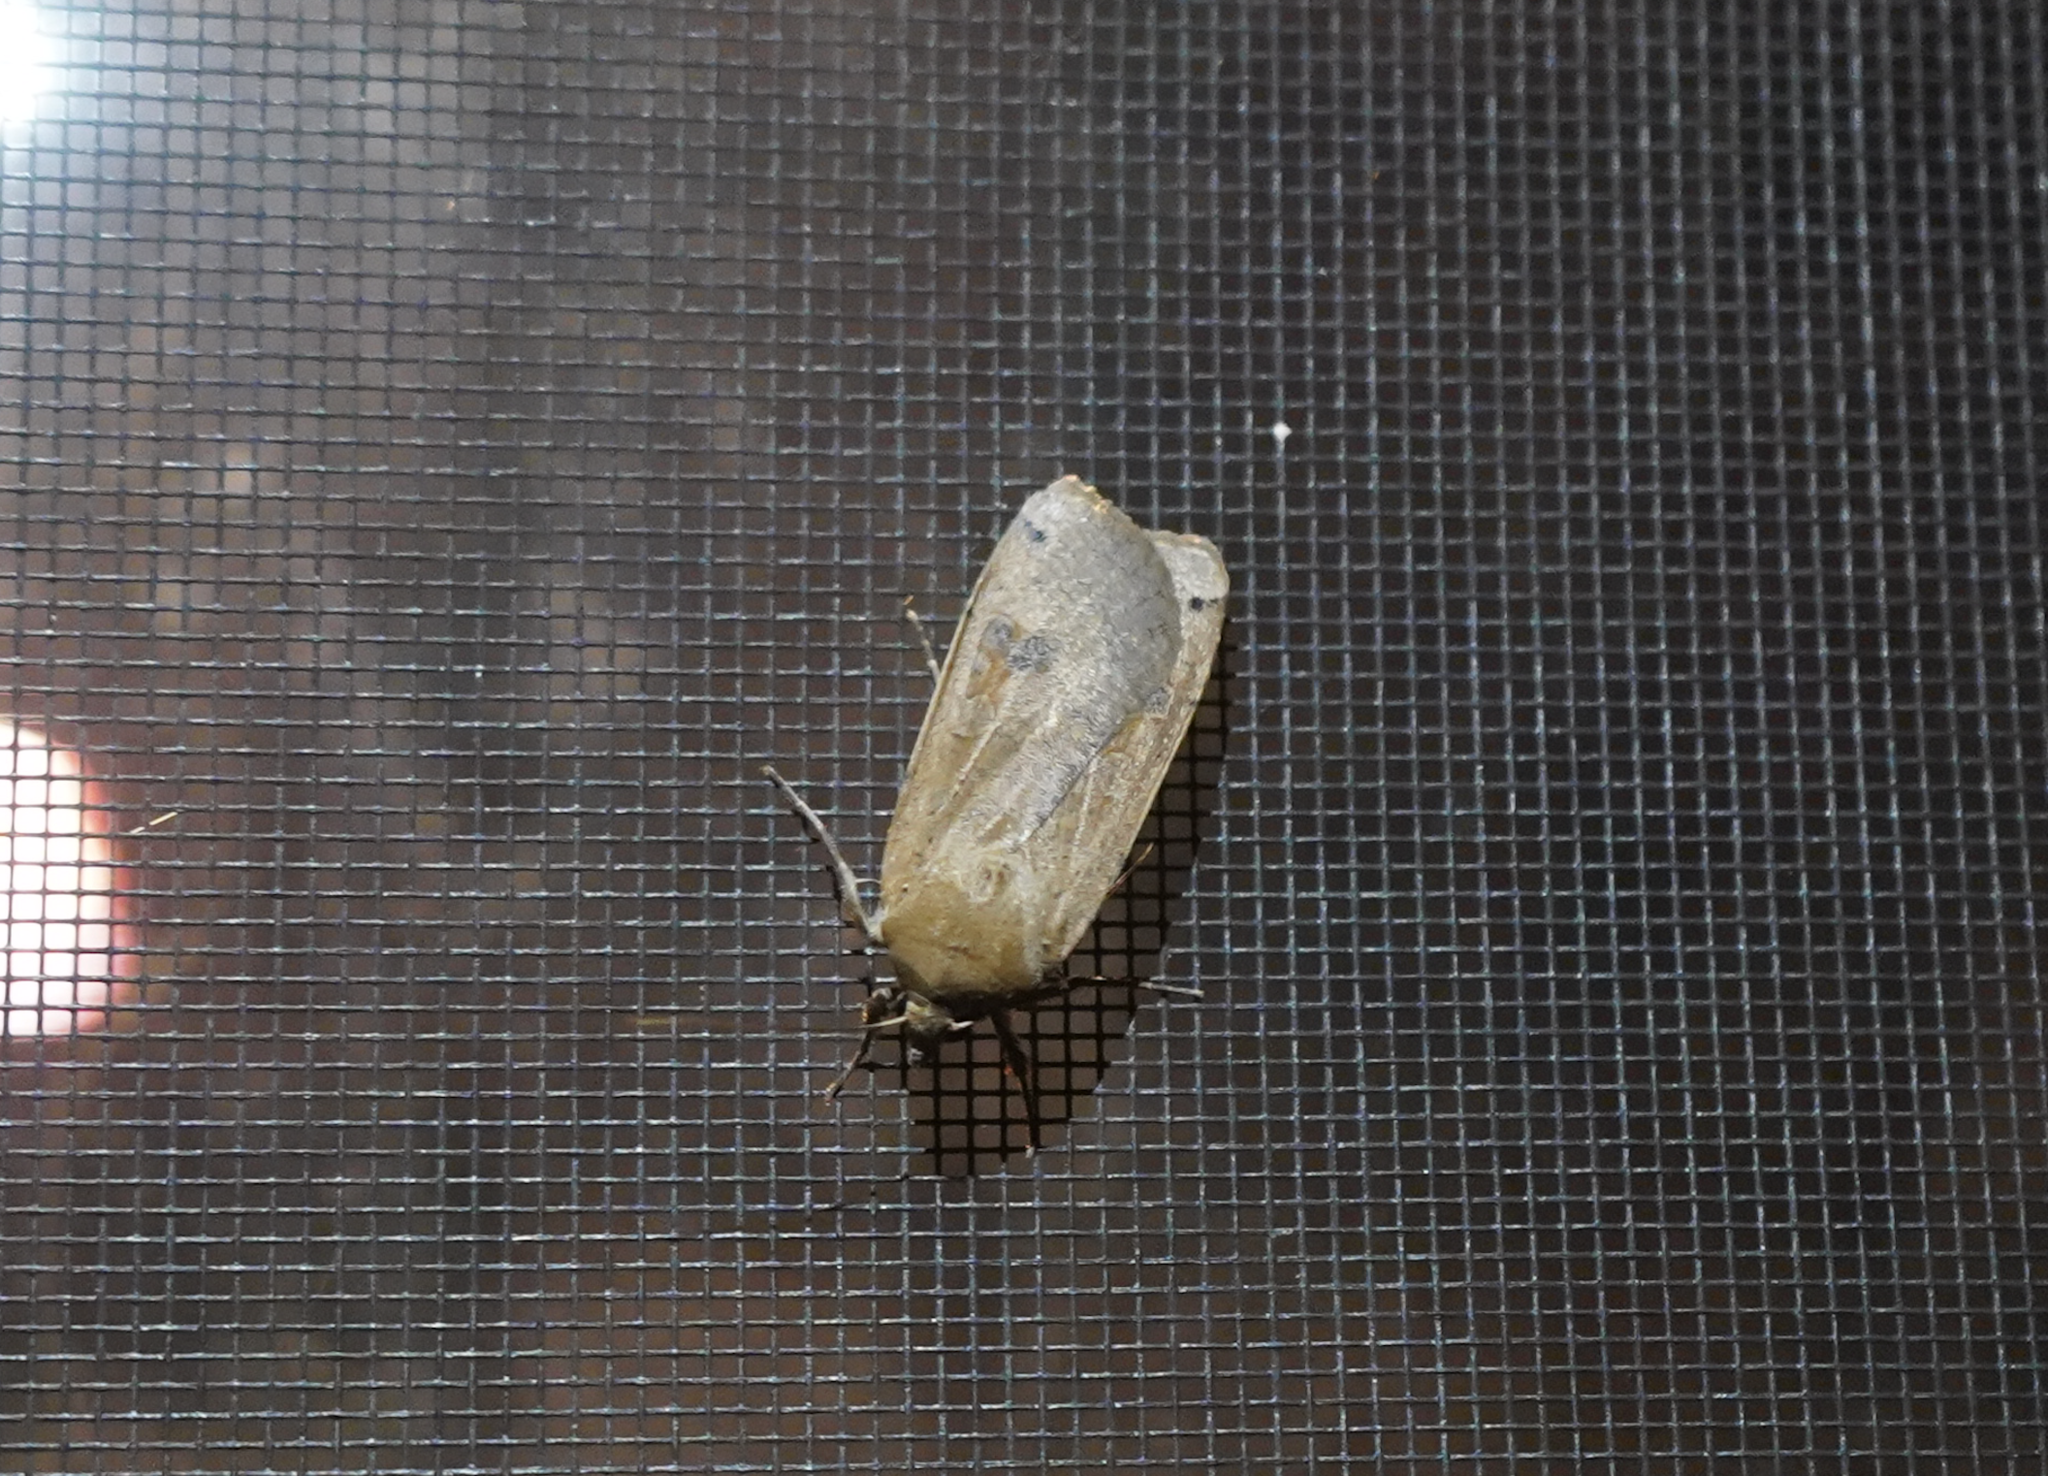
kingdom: Animalia
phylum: Arthropoda
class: Insecta
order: Lepidoptera
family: Noctuidae
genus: Noctua
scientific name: Noctua pronuba
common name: Large yellow underwing
